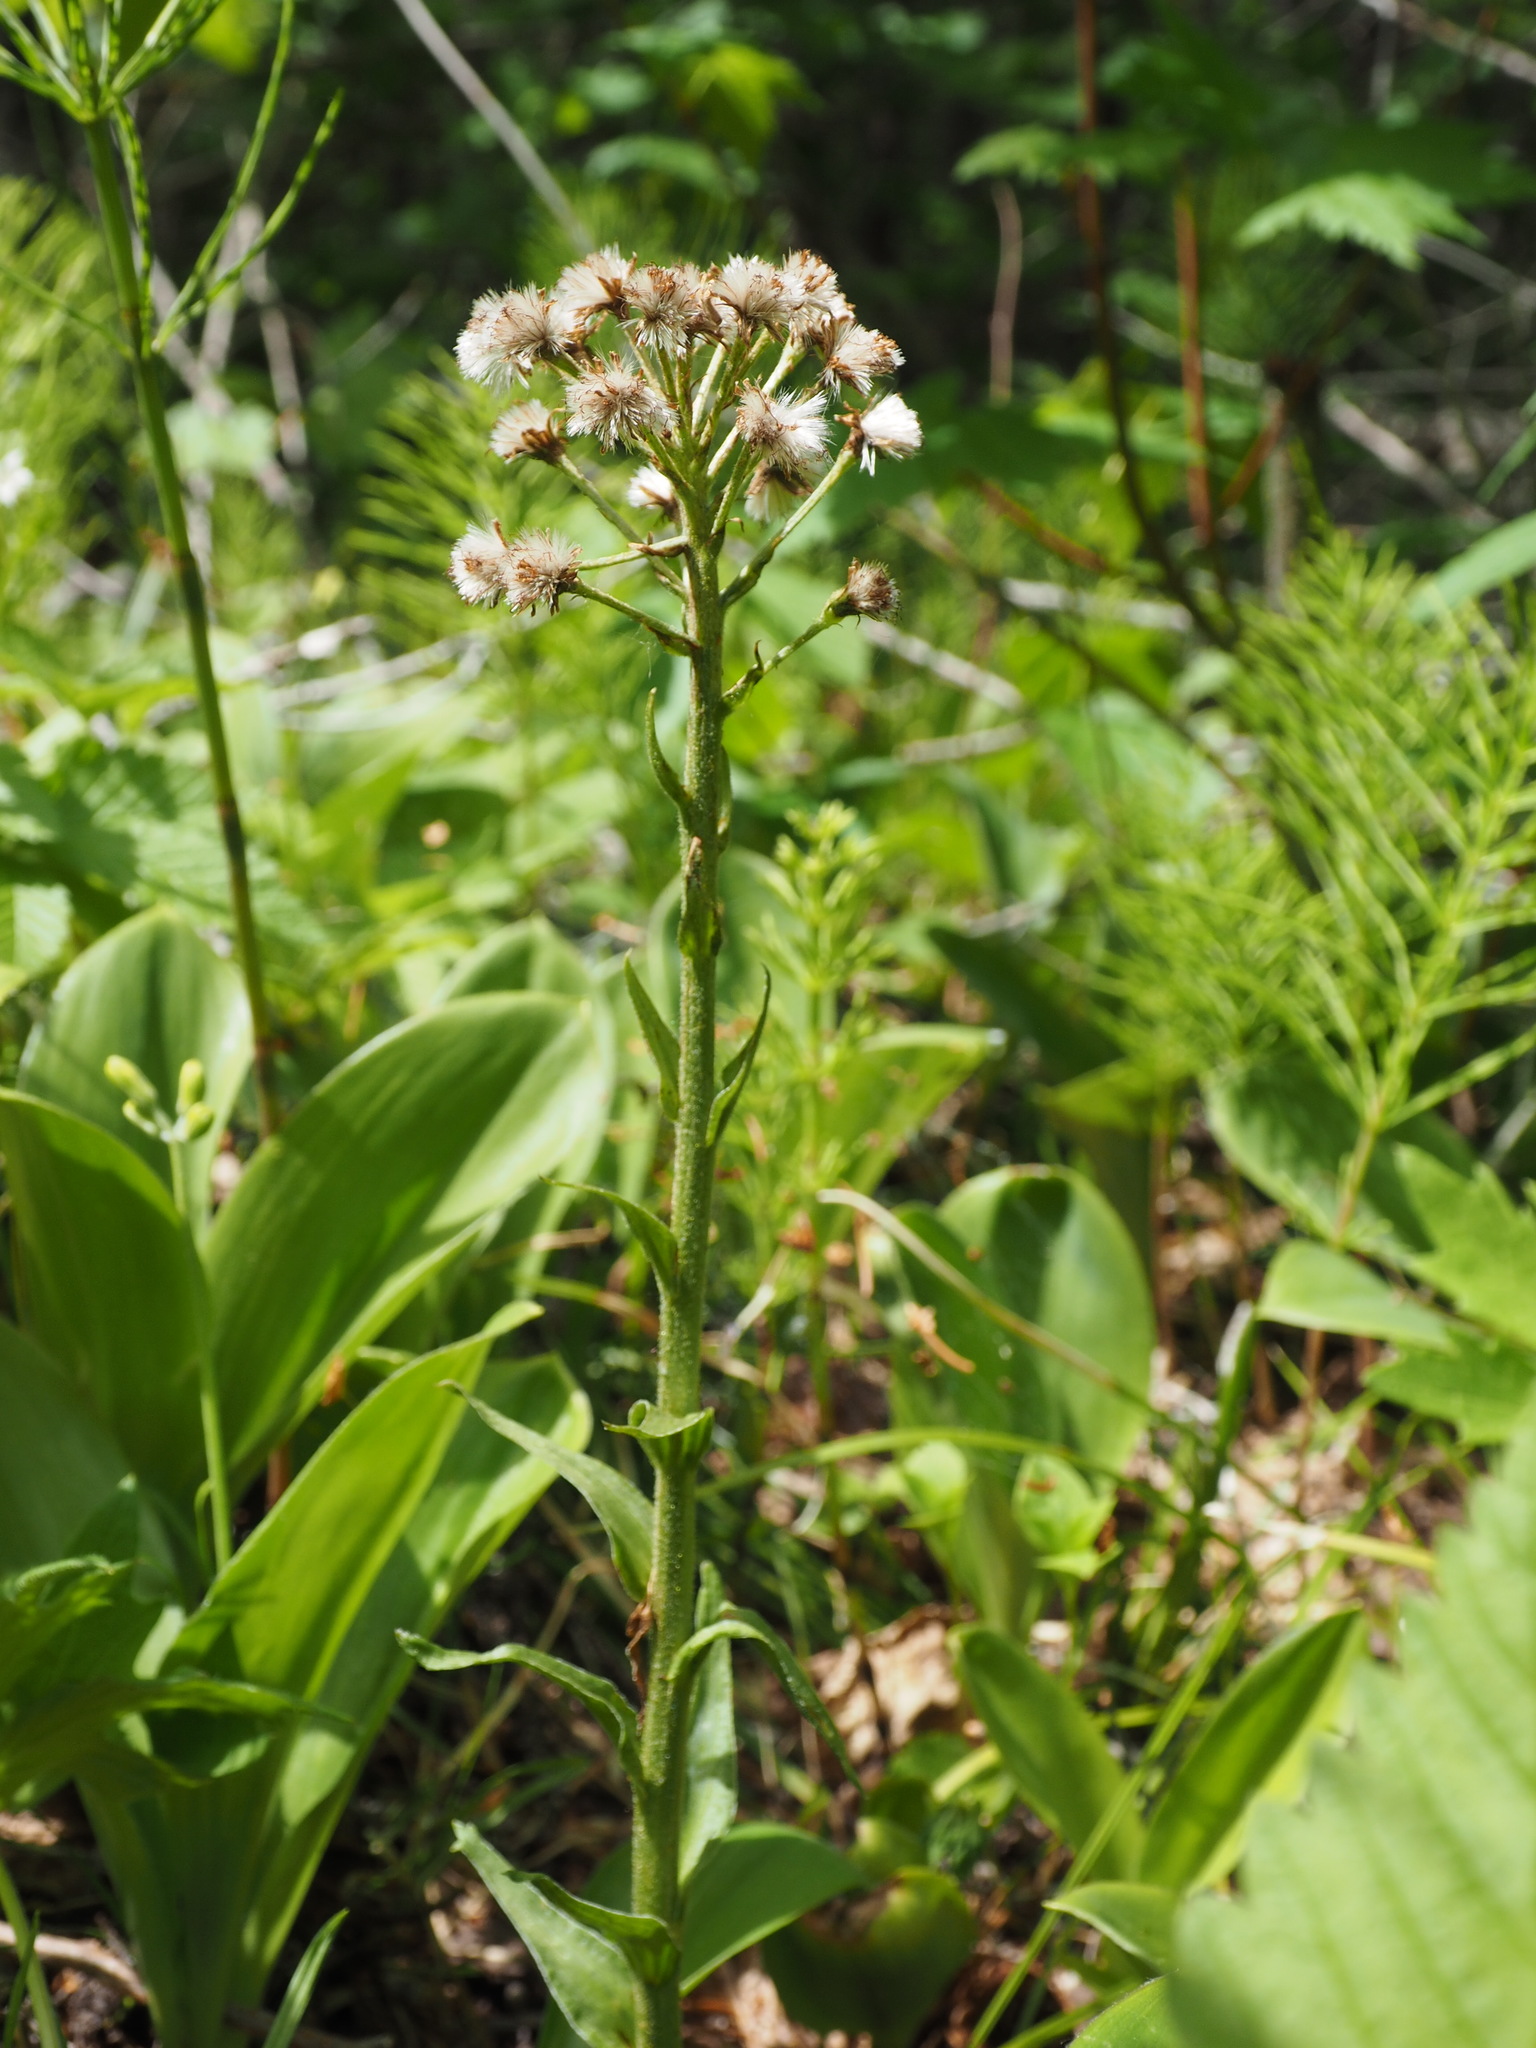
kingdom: Plantae
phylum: Tracheophyta
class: Magnoliopsida
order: Asterales
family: Asteraceae
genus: Petasites
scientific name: Petasites frigidus
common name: Arctic butterbur
